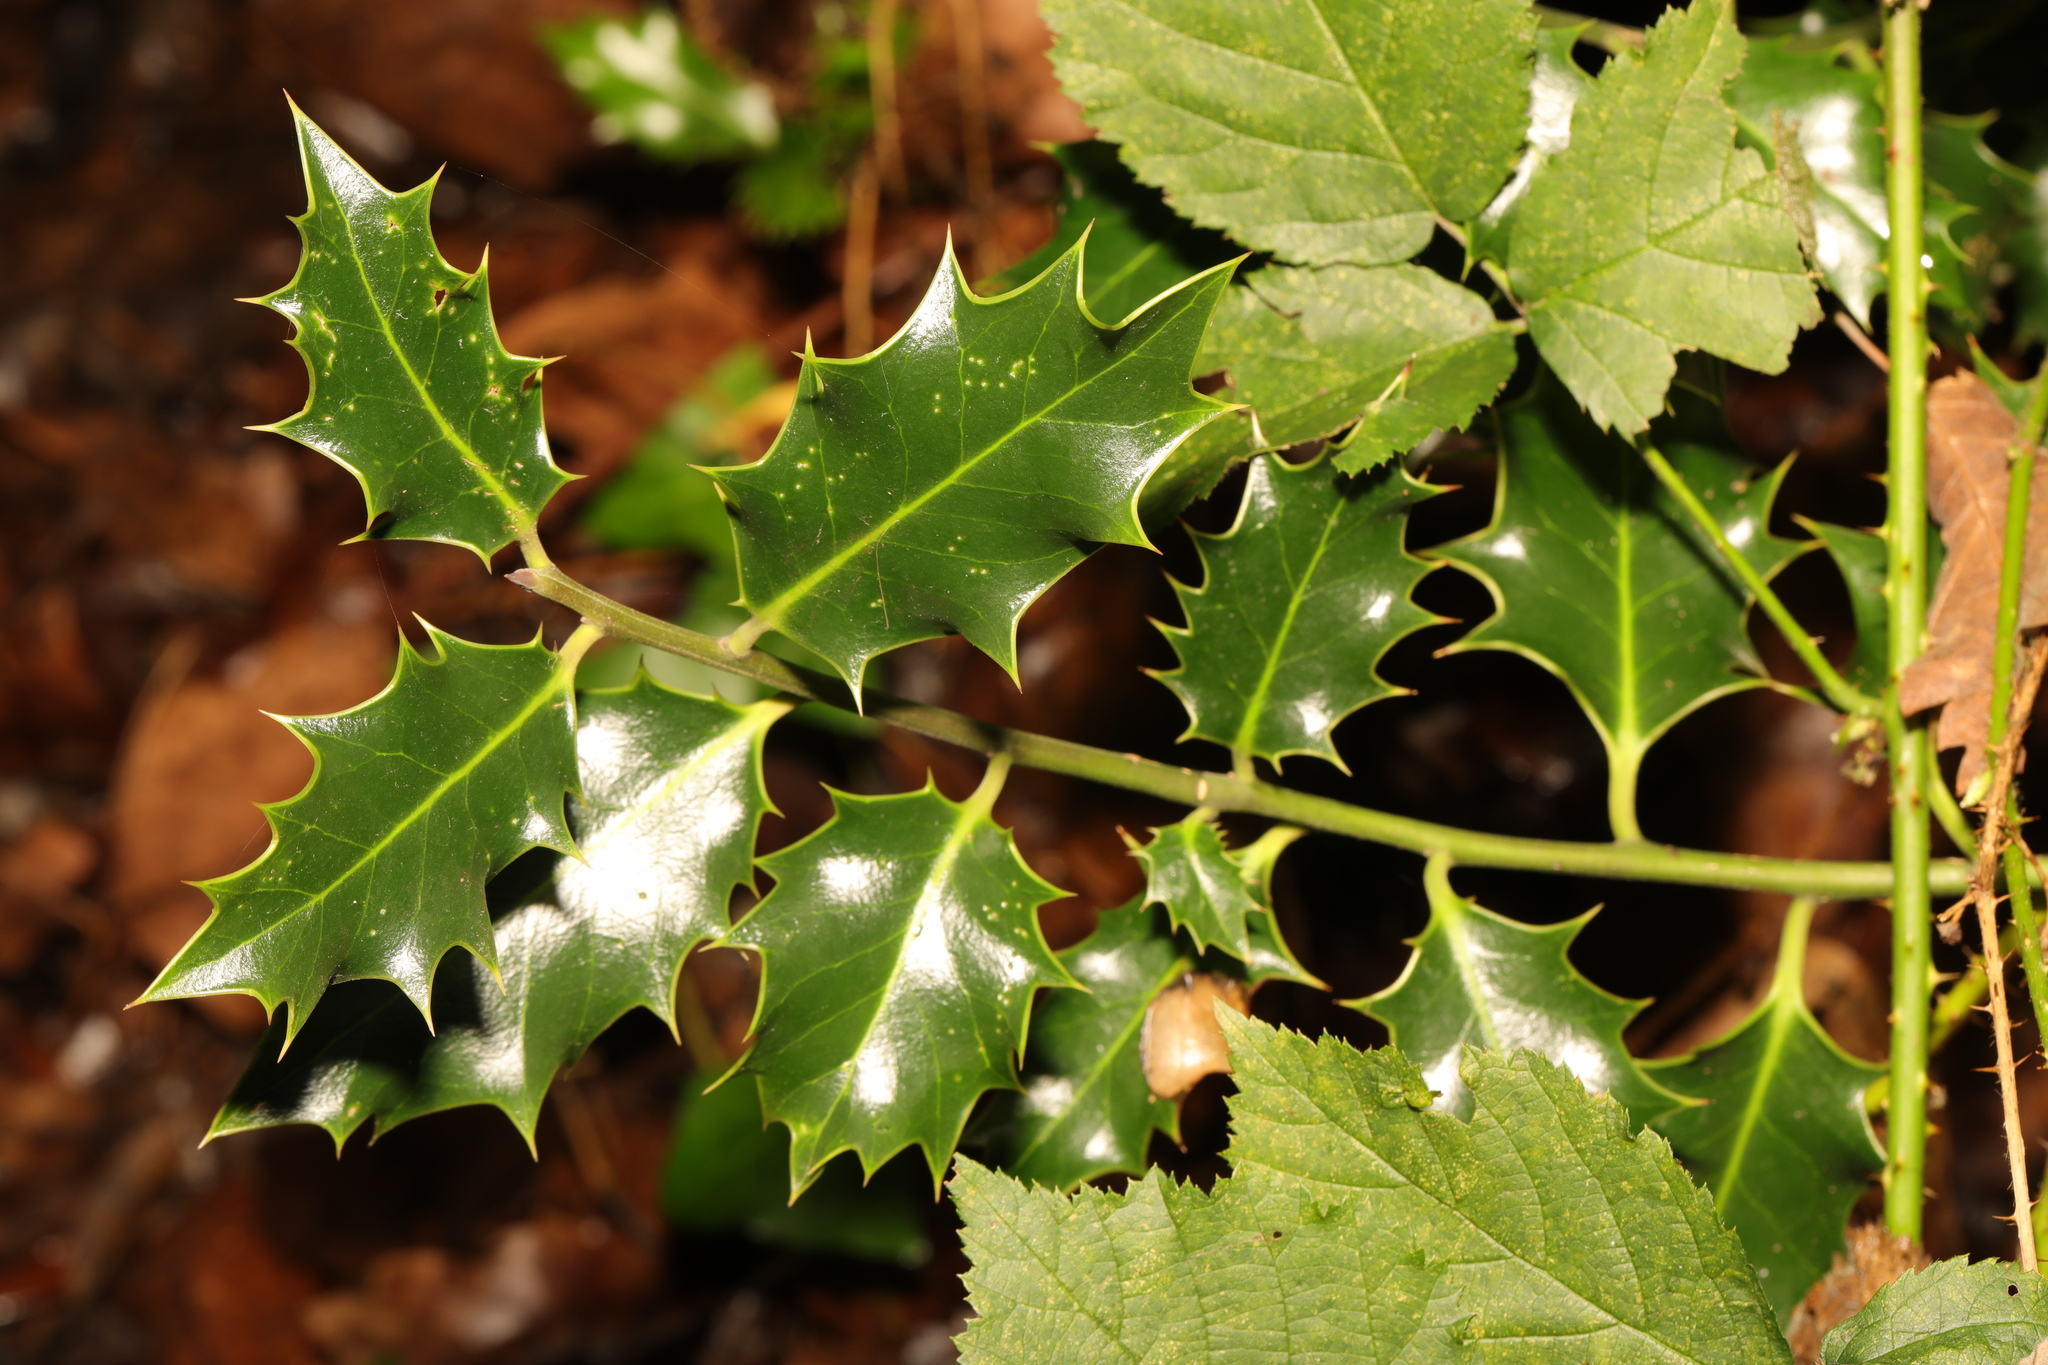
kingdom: Plantae
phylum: Tracheophyta
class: Magnoliopsida
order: Aquifoliales
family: Aquifoliaceae
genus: Ilex
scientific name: Ilex aquifolium
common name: English holly
